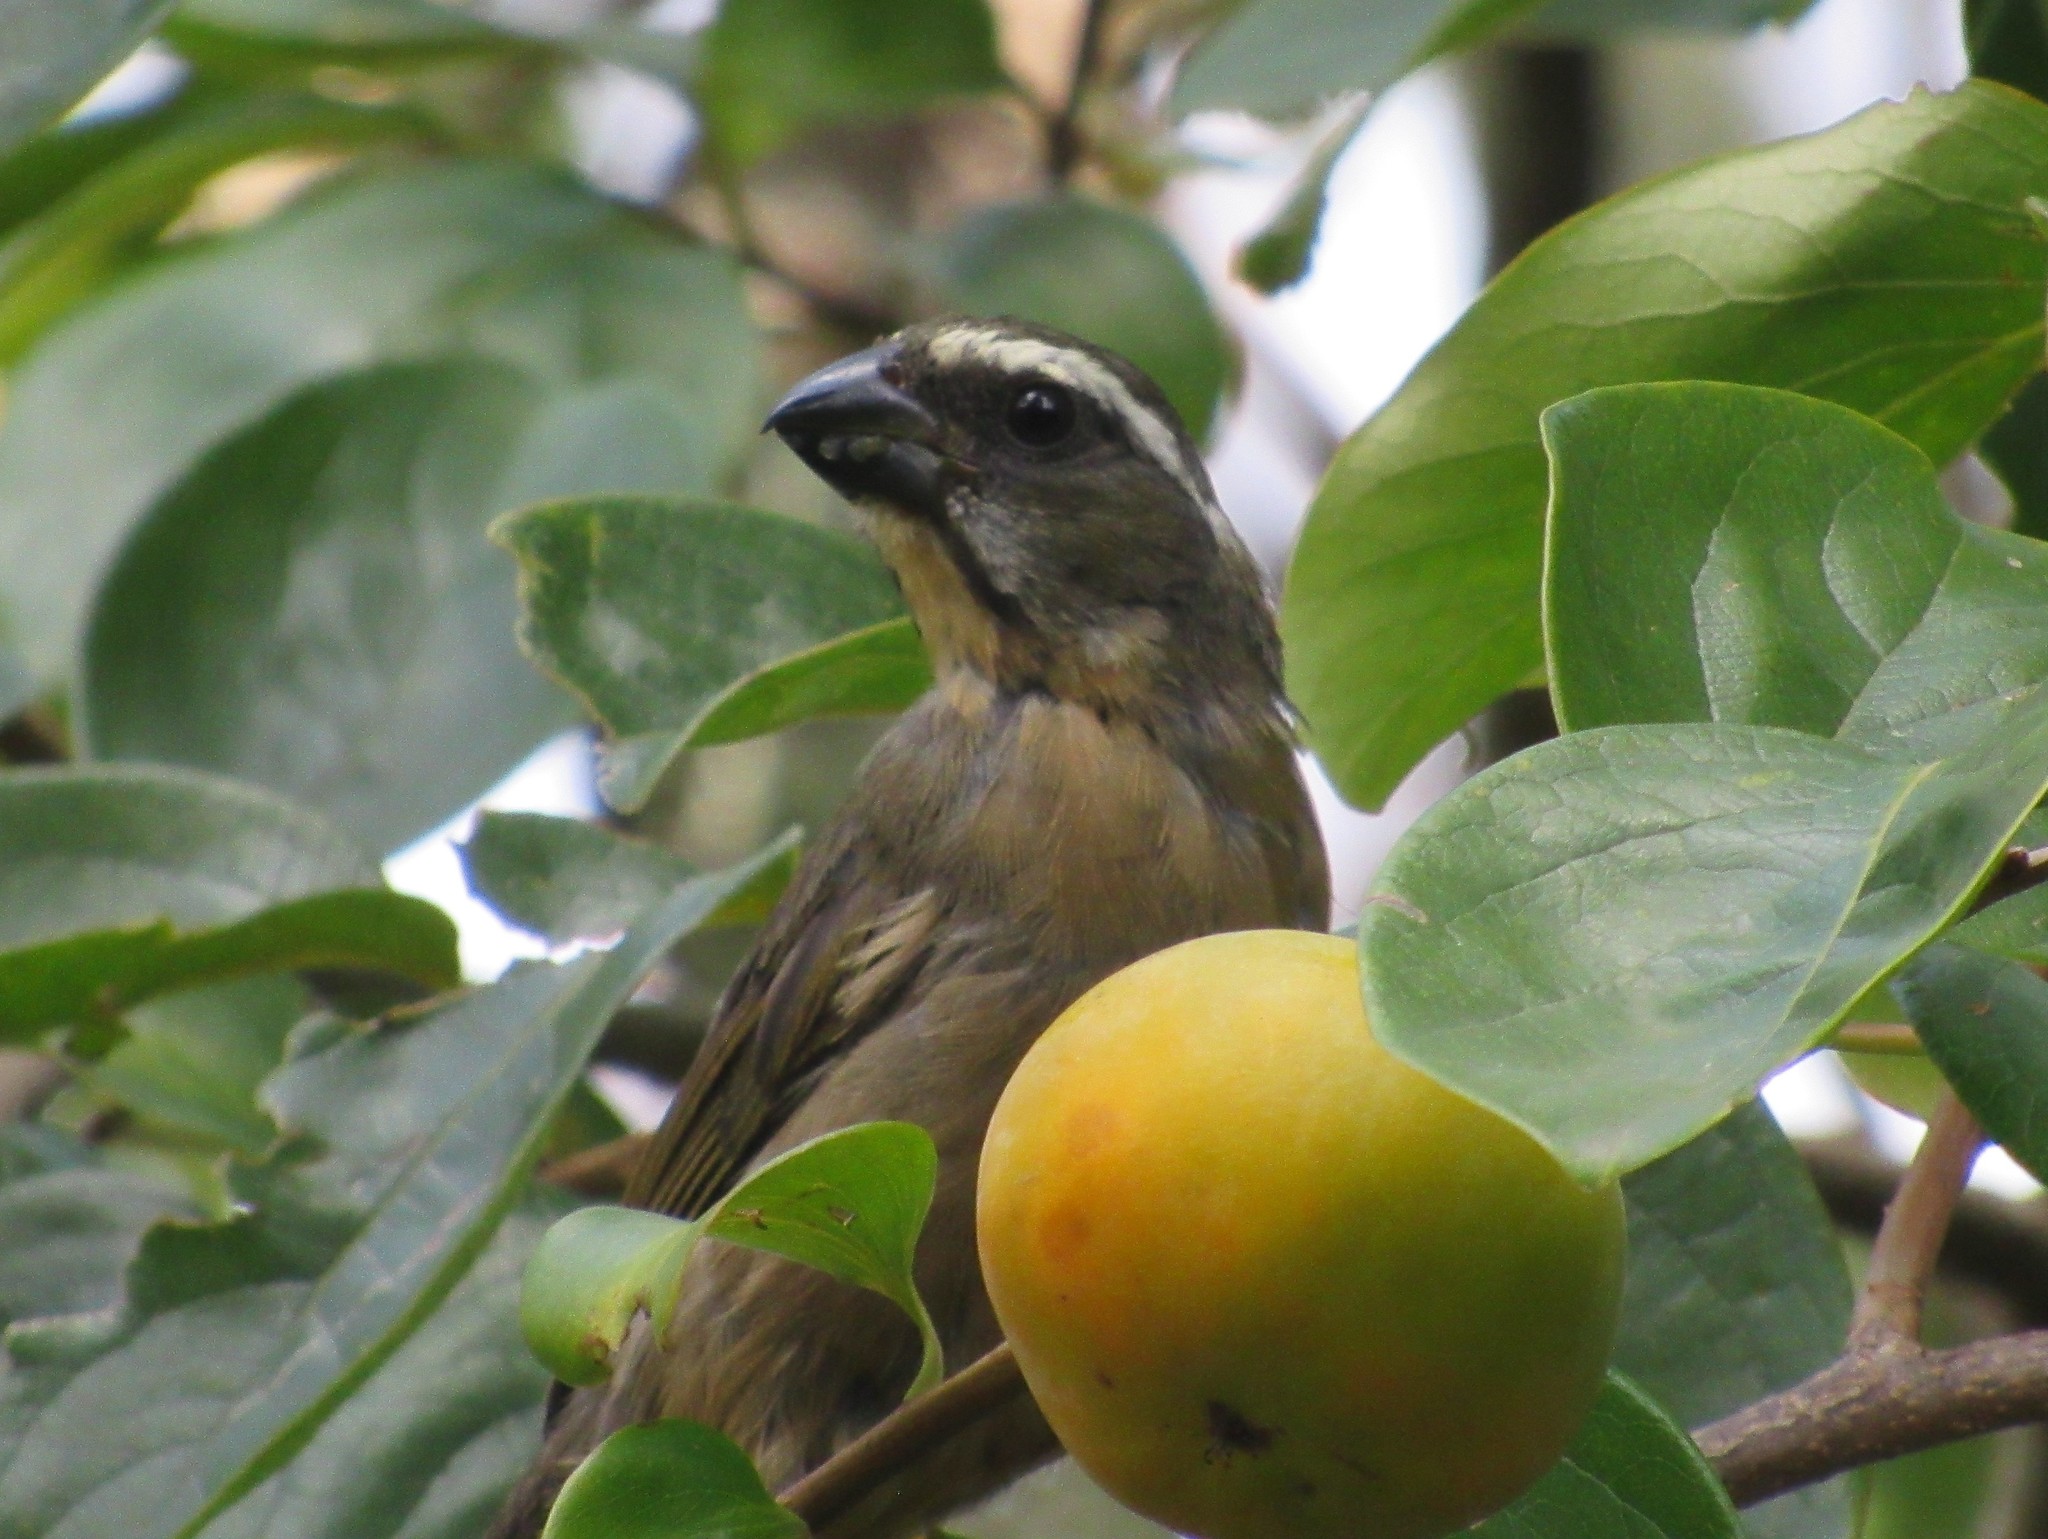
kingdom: Animalia
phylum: Chordata
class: Aves
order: Passeriformes
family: Thraupidae
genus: Saltator
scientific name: Saltator maxillosus
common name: Thick-billed saltator
